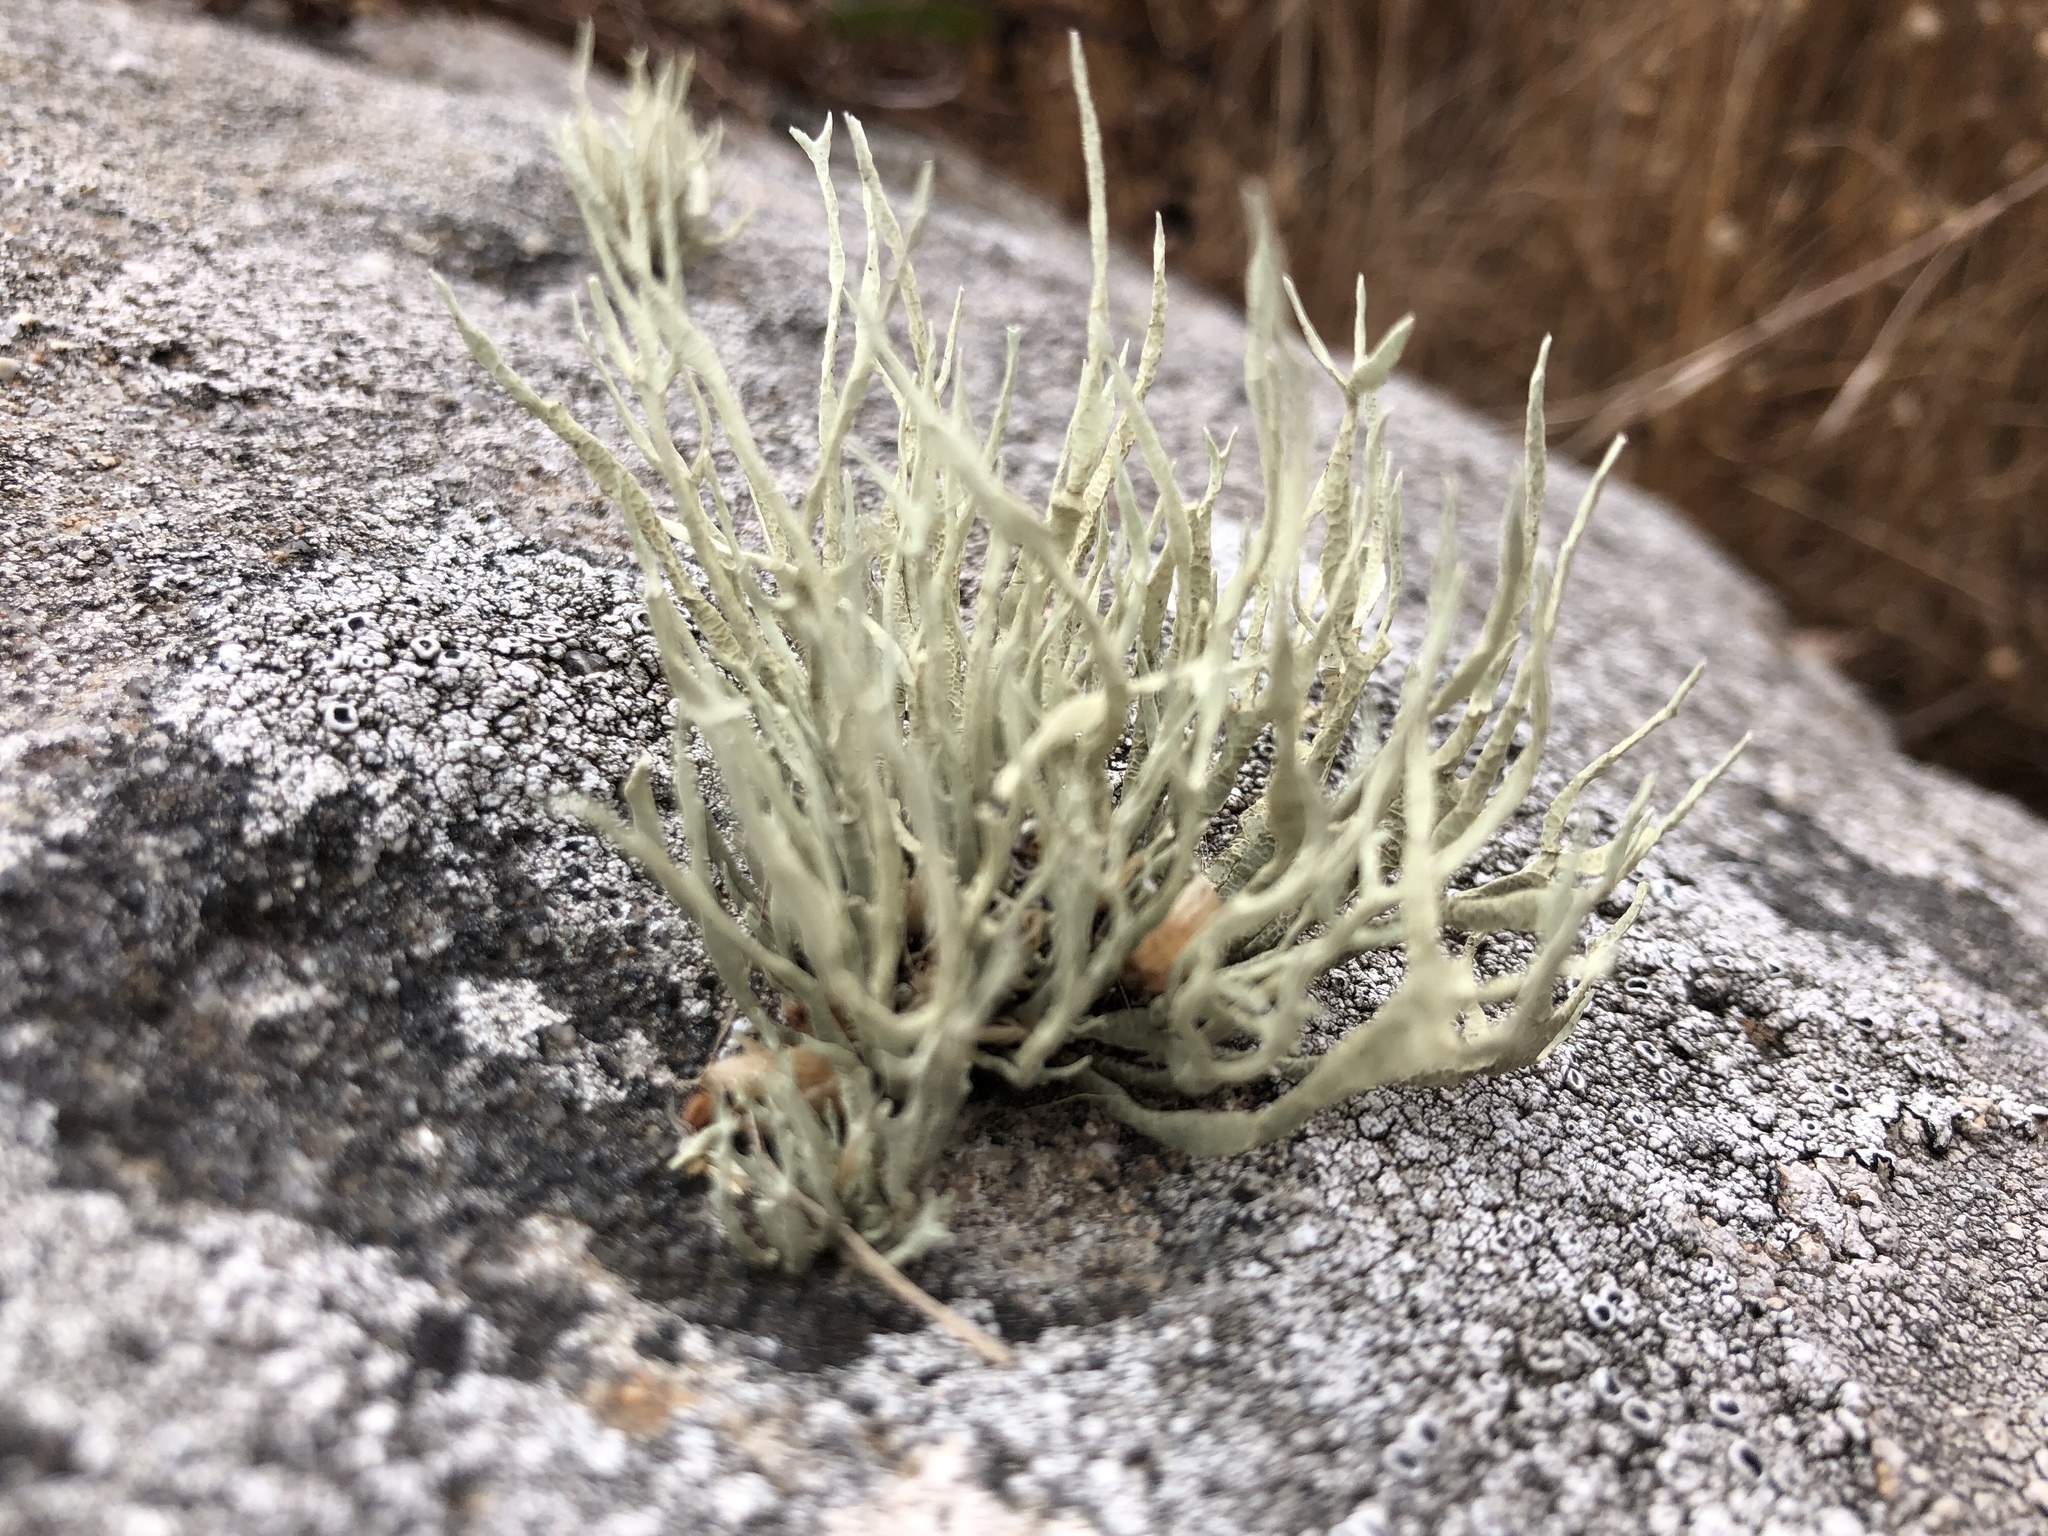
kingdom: Fungi
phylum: Ascomycota
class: Lecanoromycetes
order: Lecanorales
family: Ramalinaceae
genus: Niebla
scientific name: Niebla homalea
